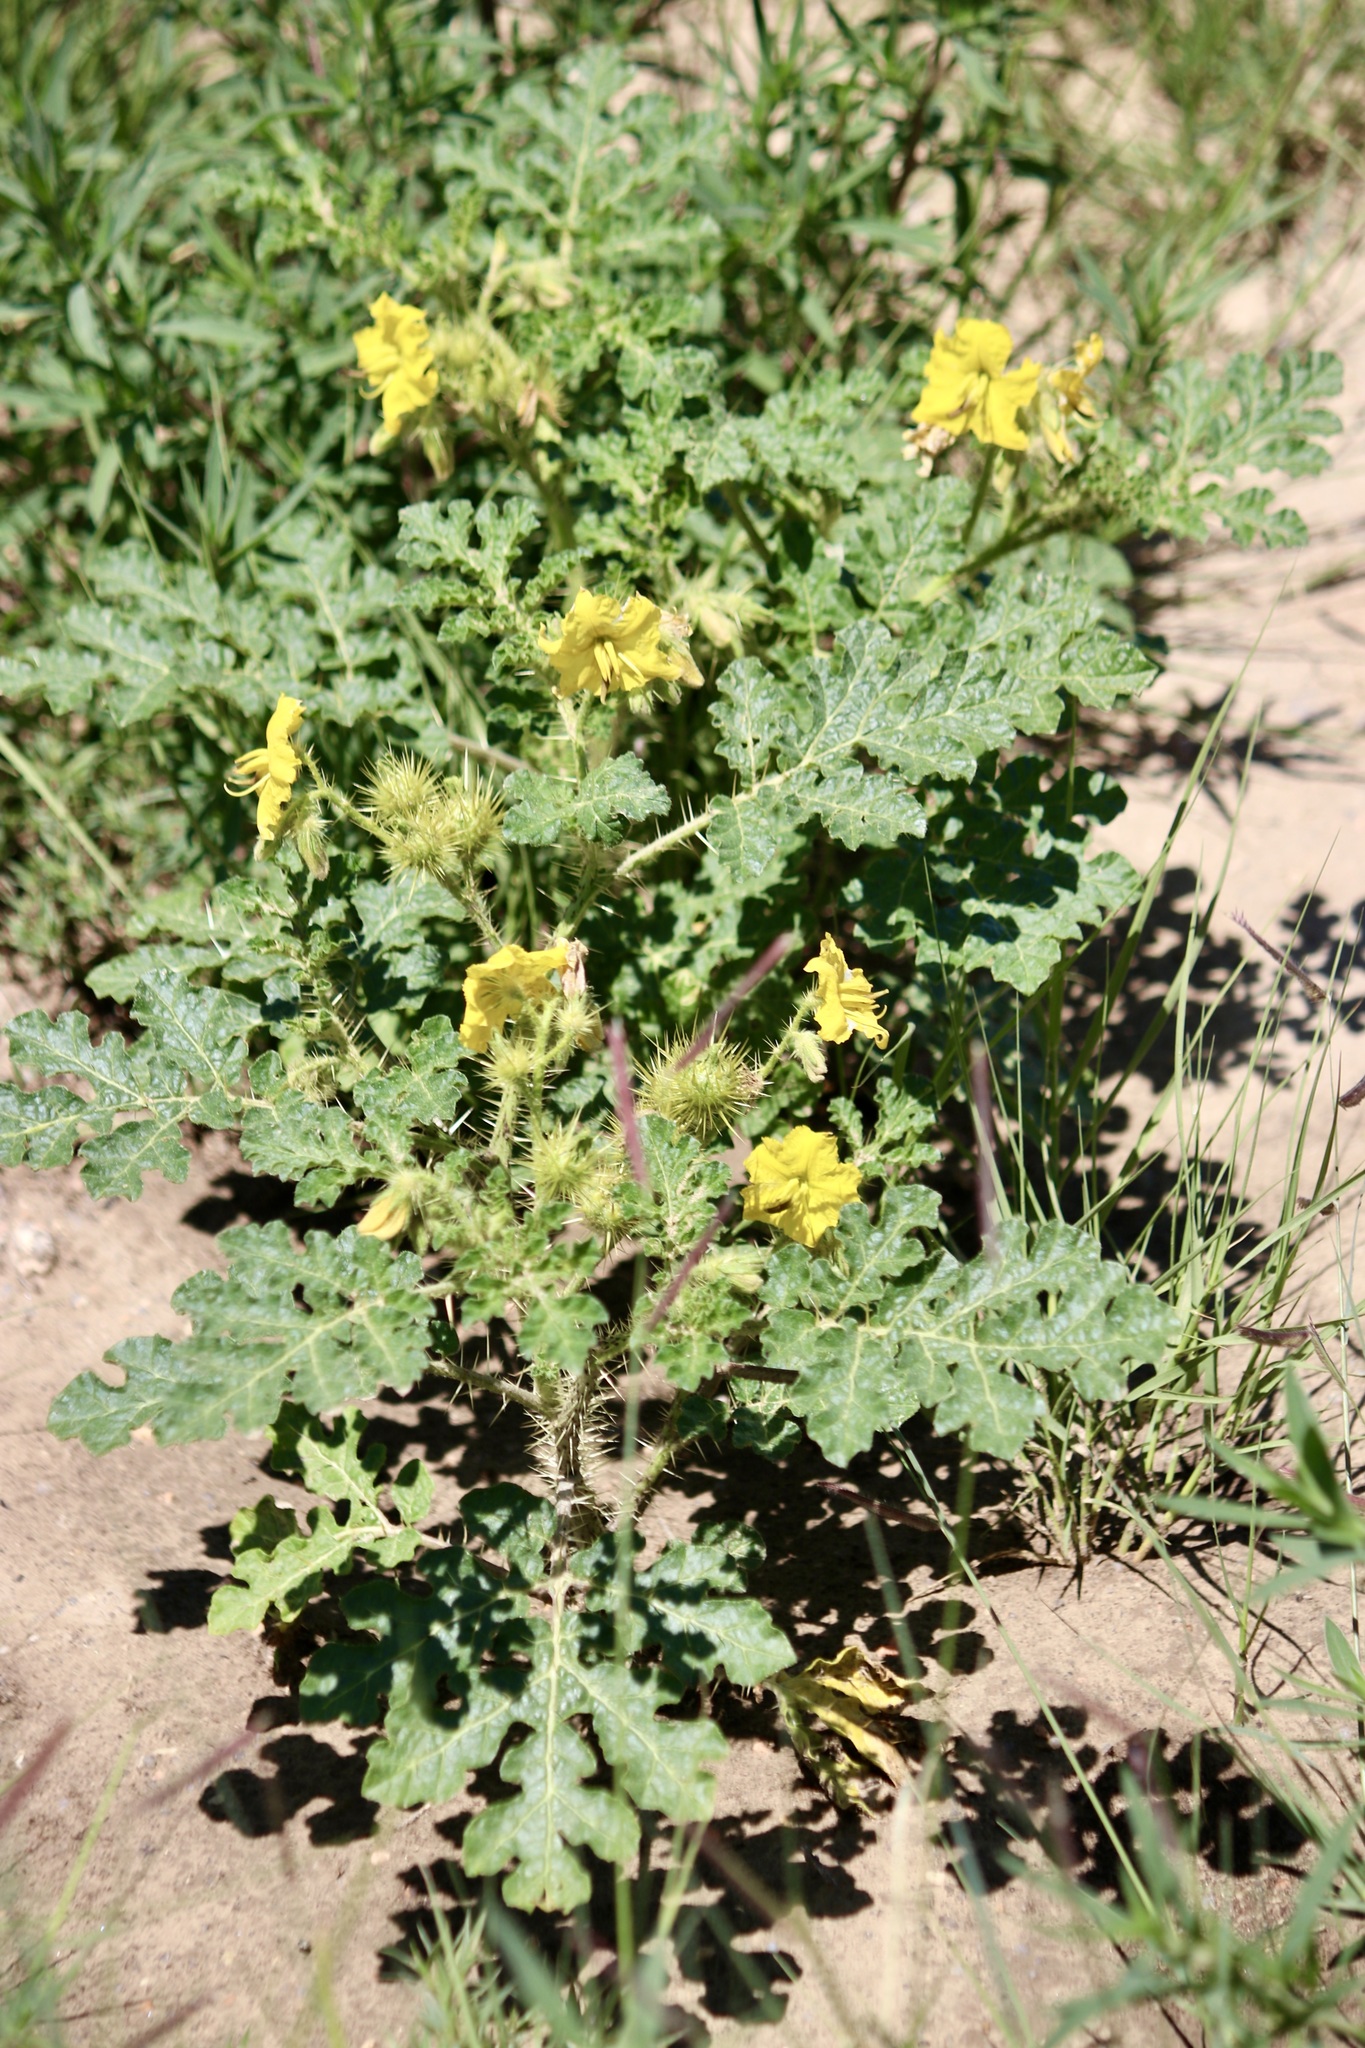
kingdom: Plantae
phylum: Tracheophyta
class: Magnoliopsida
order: Solanales
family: Solanaceae
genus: Solanum
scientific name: Solanum angustifolium
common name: Buffalobur nightshade
